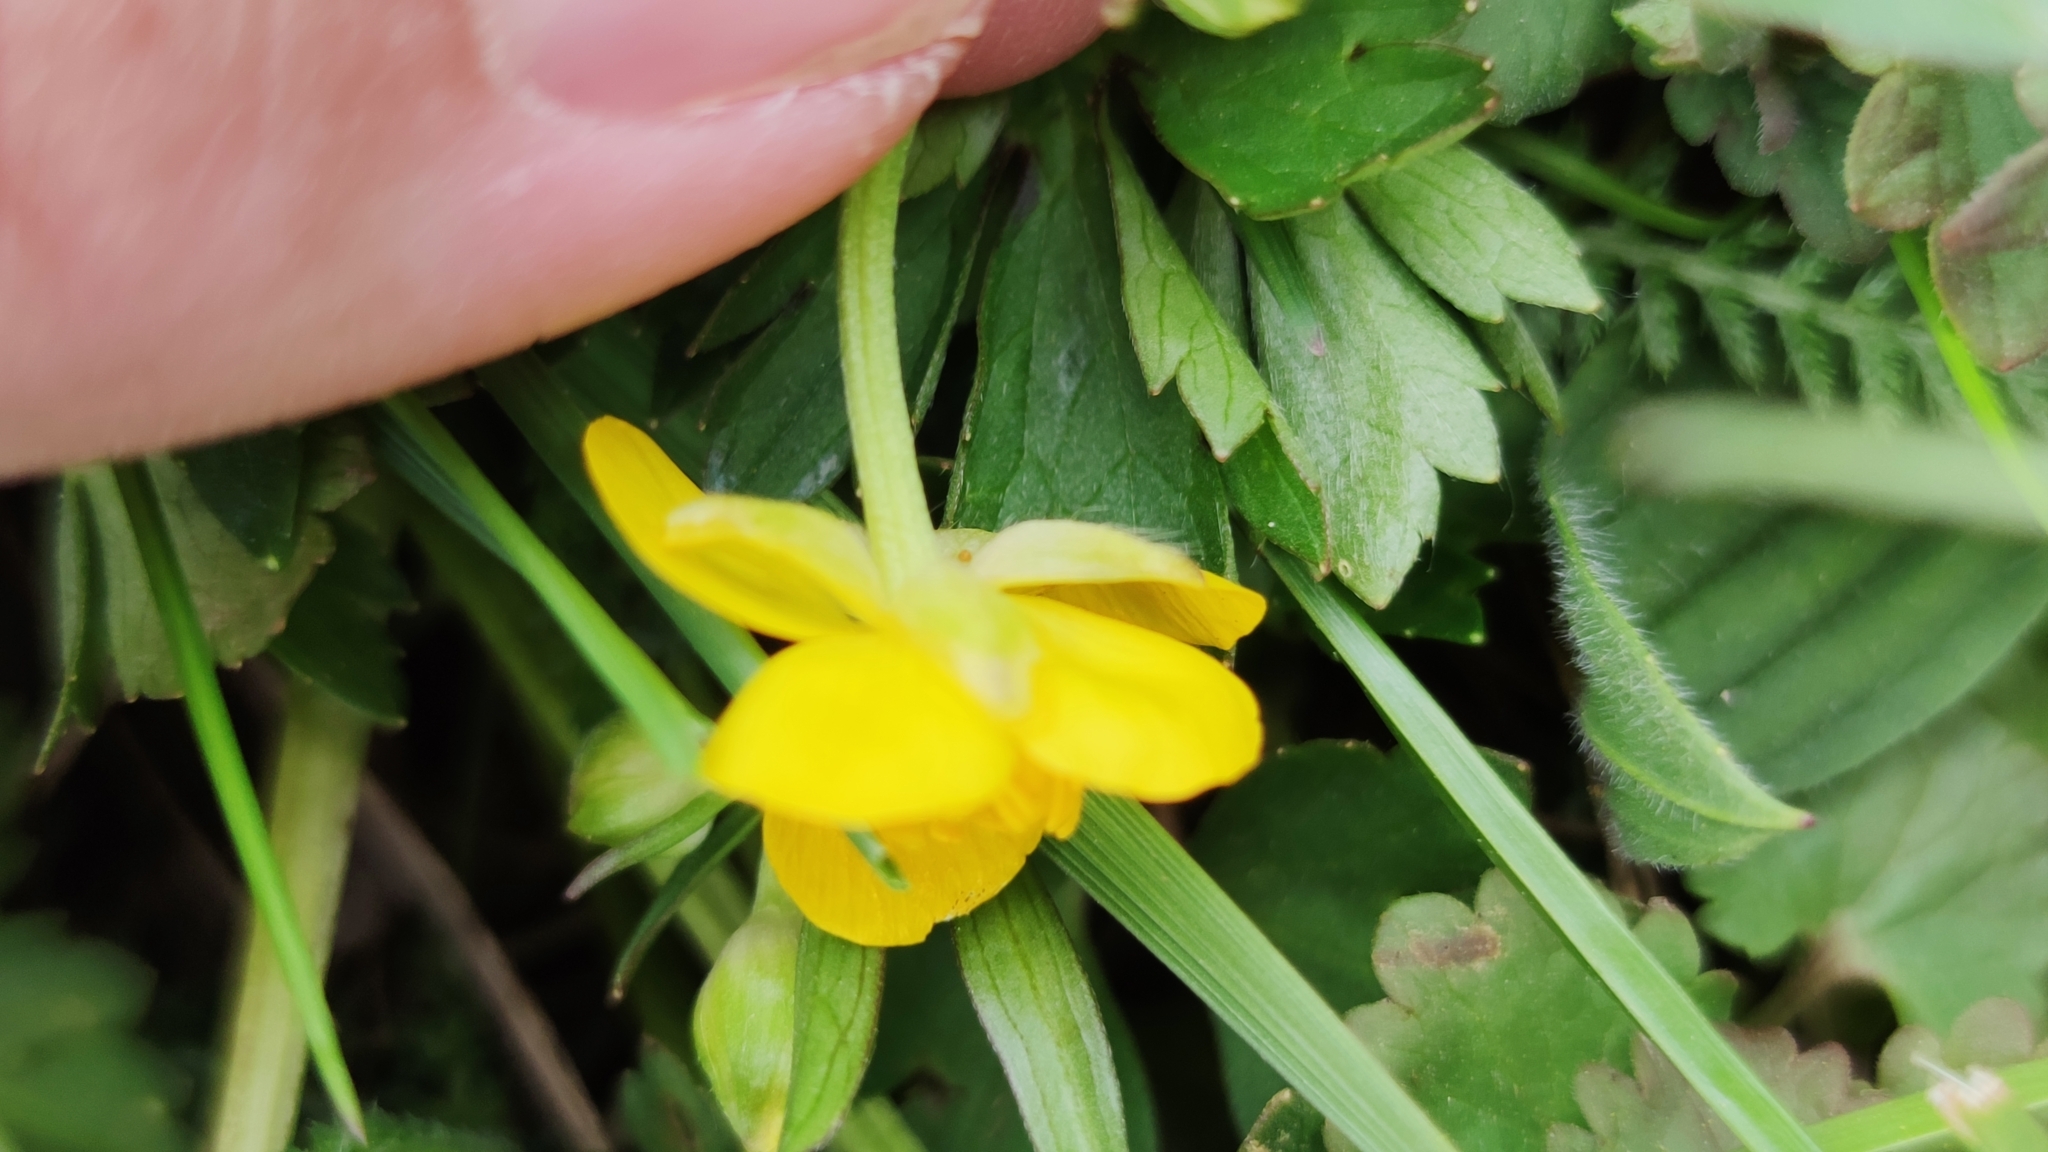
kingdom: Plantae
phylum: Tracheophyta
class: Magnoliopsida
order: Ranunculales
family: Ranunculaceae
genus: Ranunculus
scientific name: Ranunculus repens
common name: Creeping buttercup
